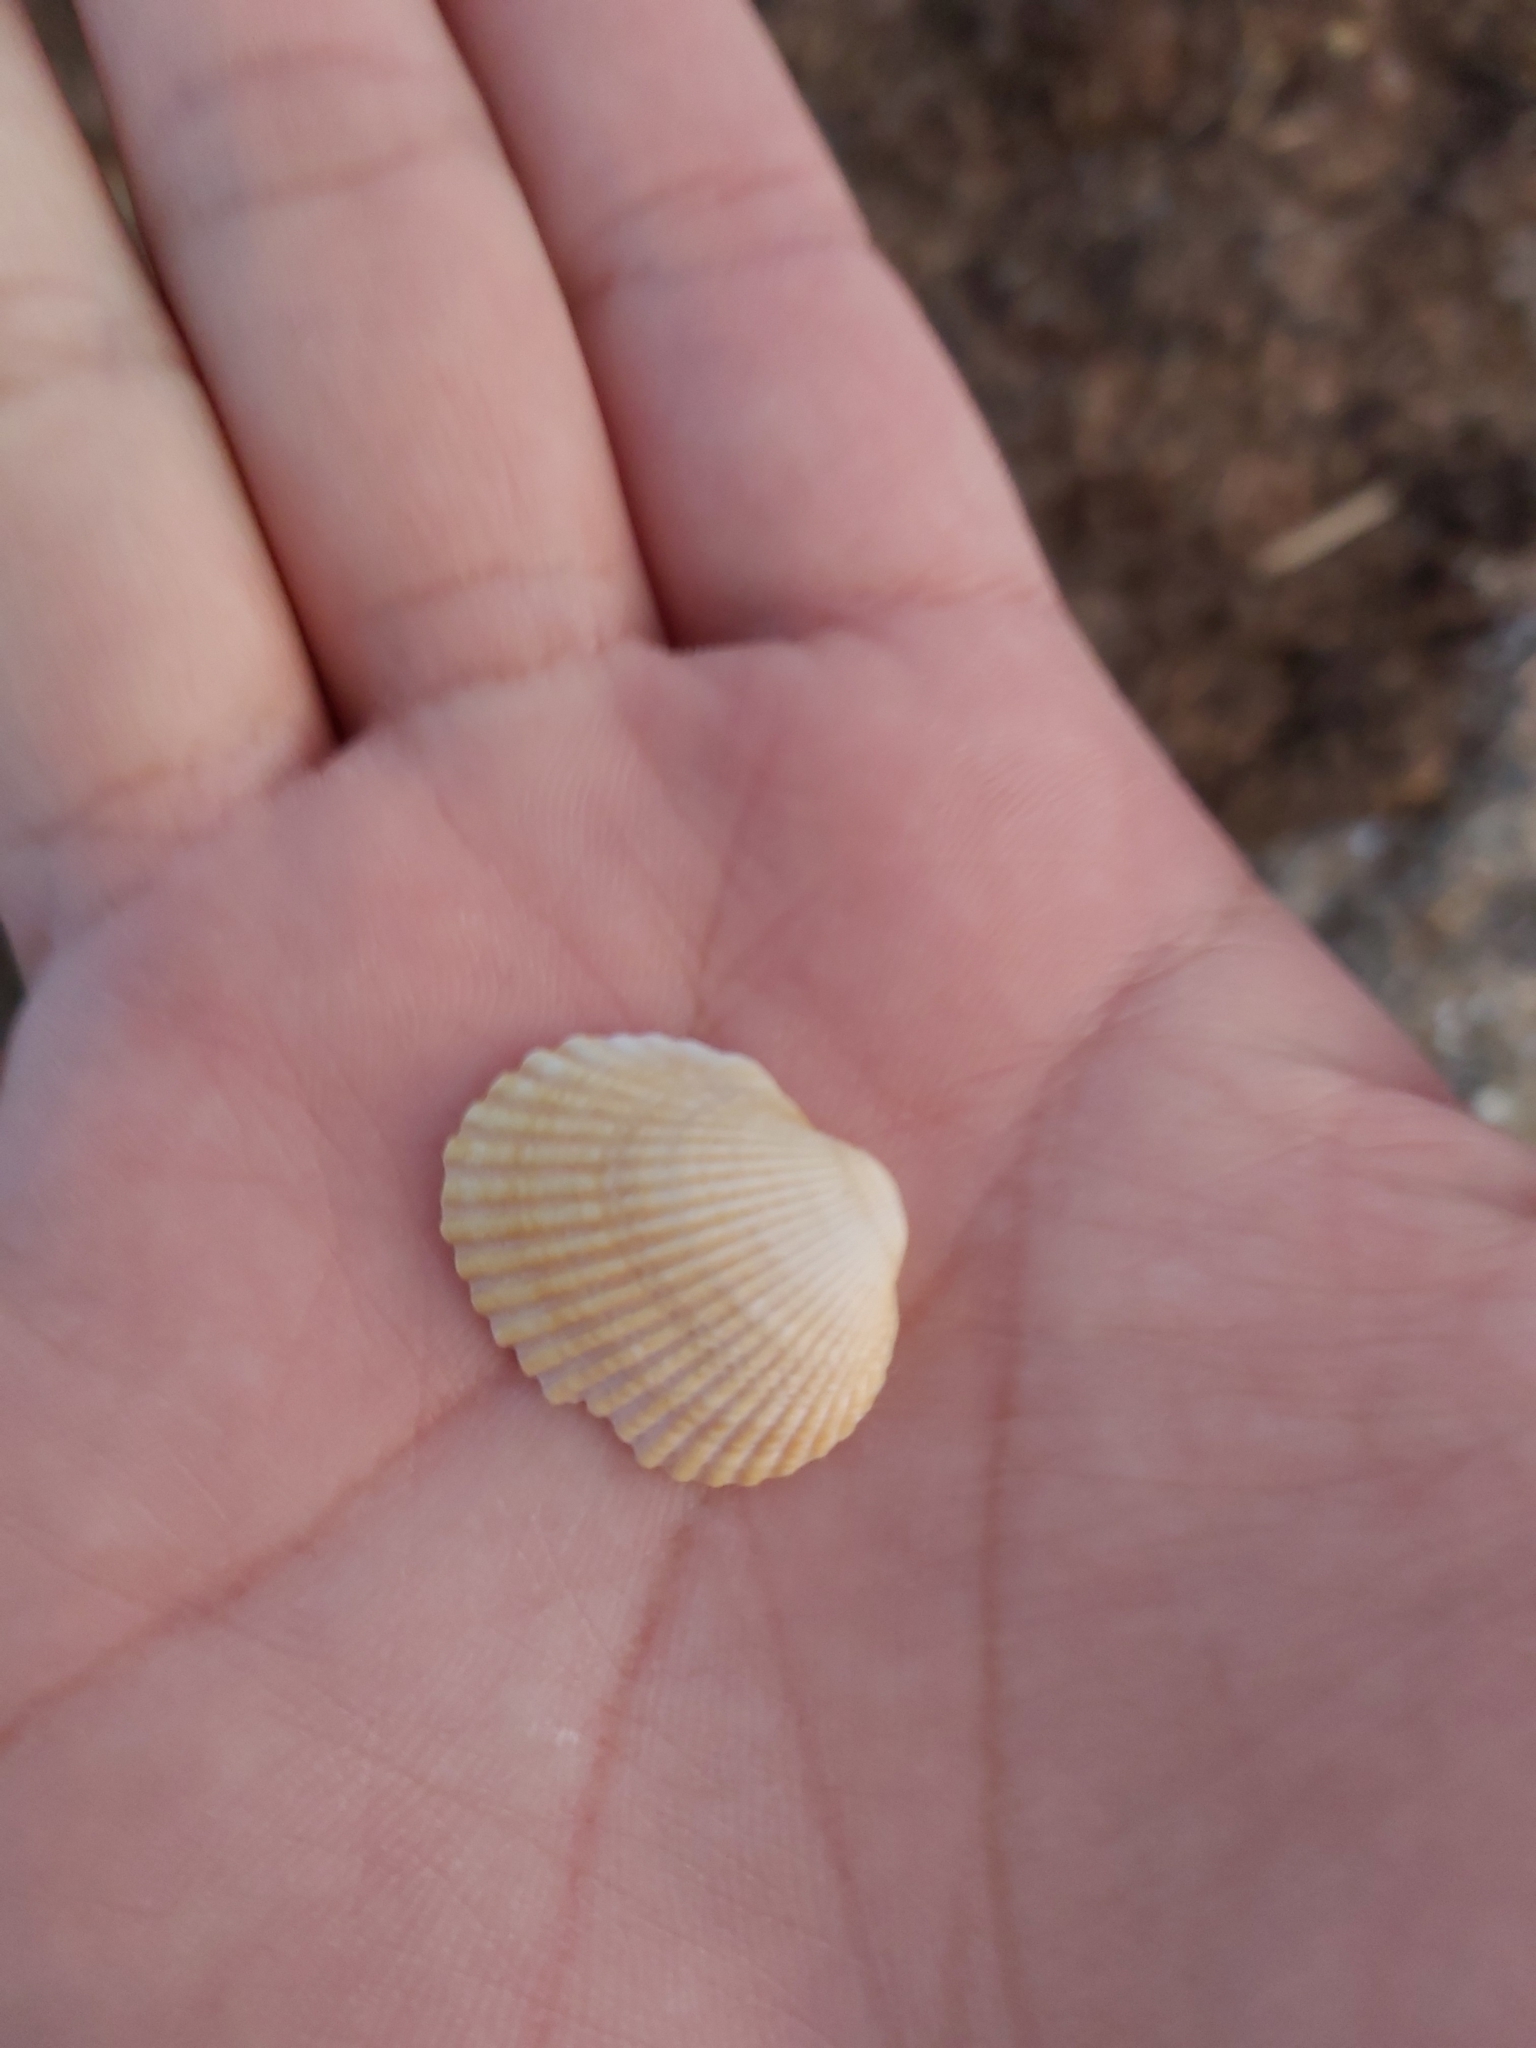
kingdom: Animalia
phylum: Mollusca
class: Bivalvia
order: Arcida
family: Arcidae
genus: Anadara
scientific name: Anadara trapezia
